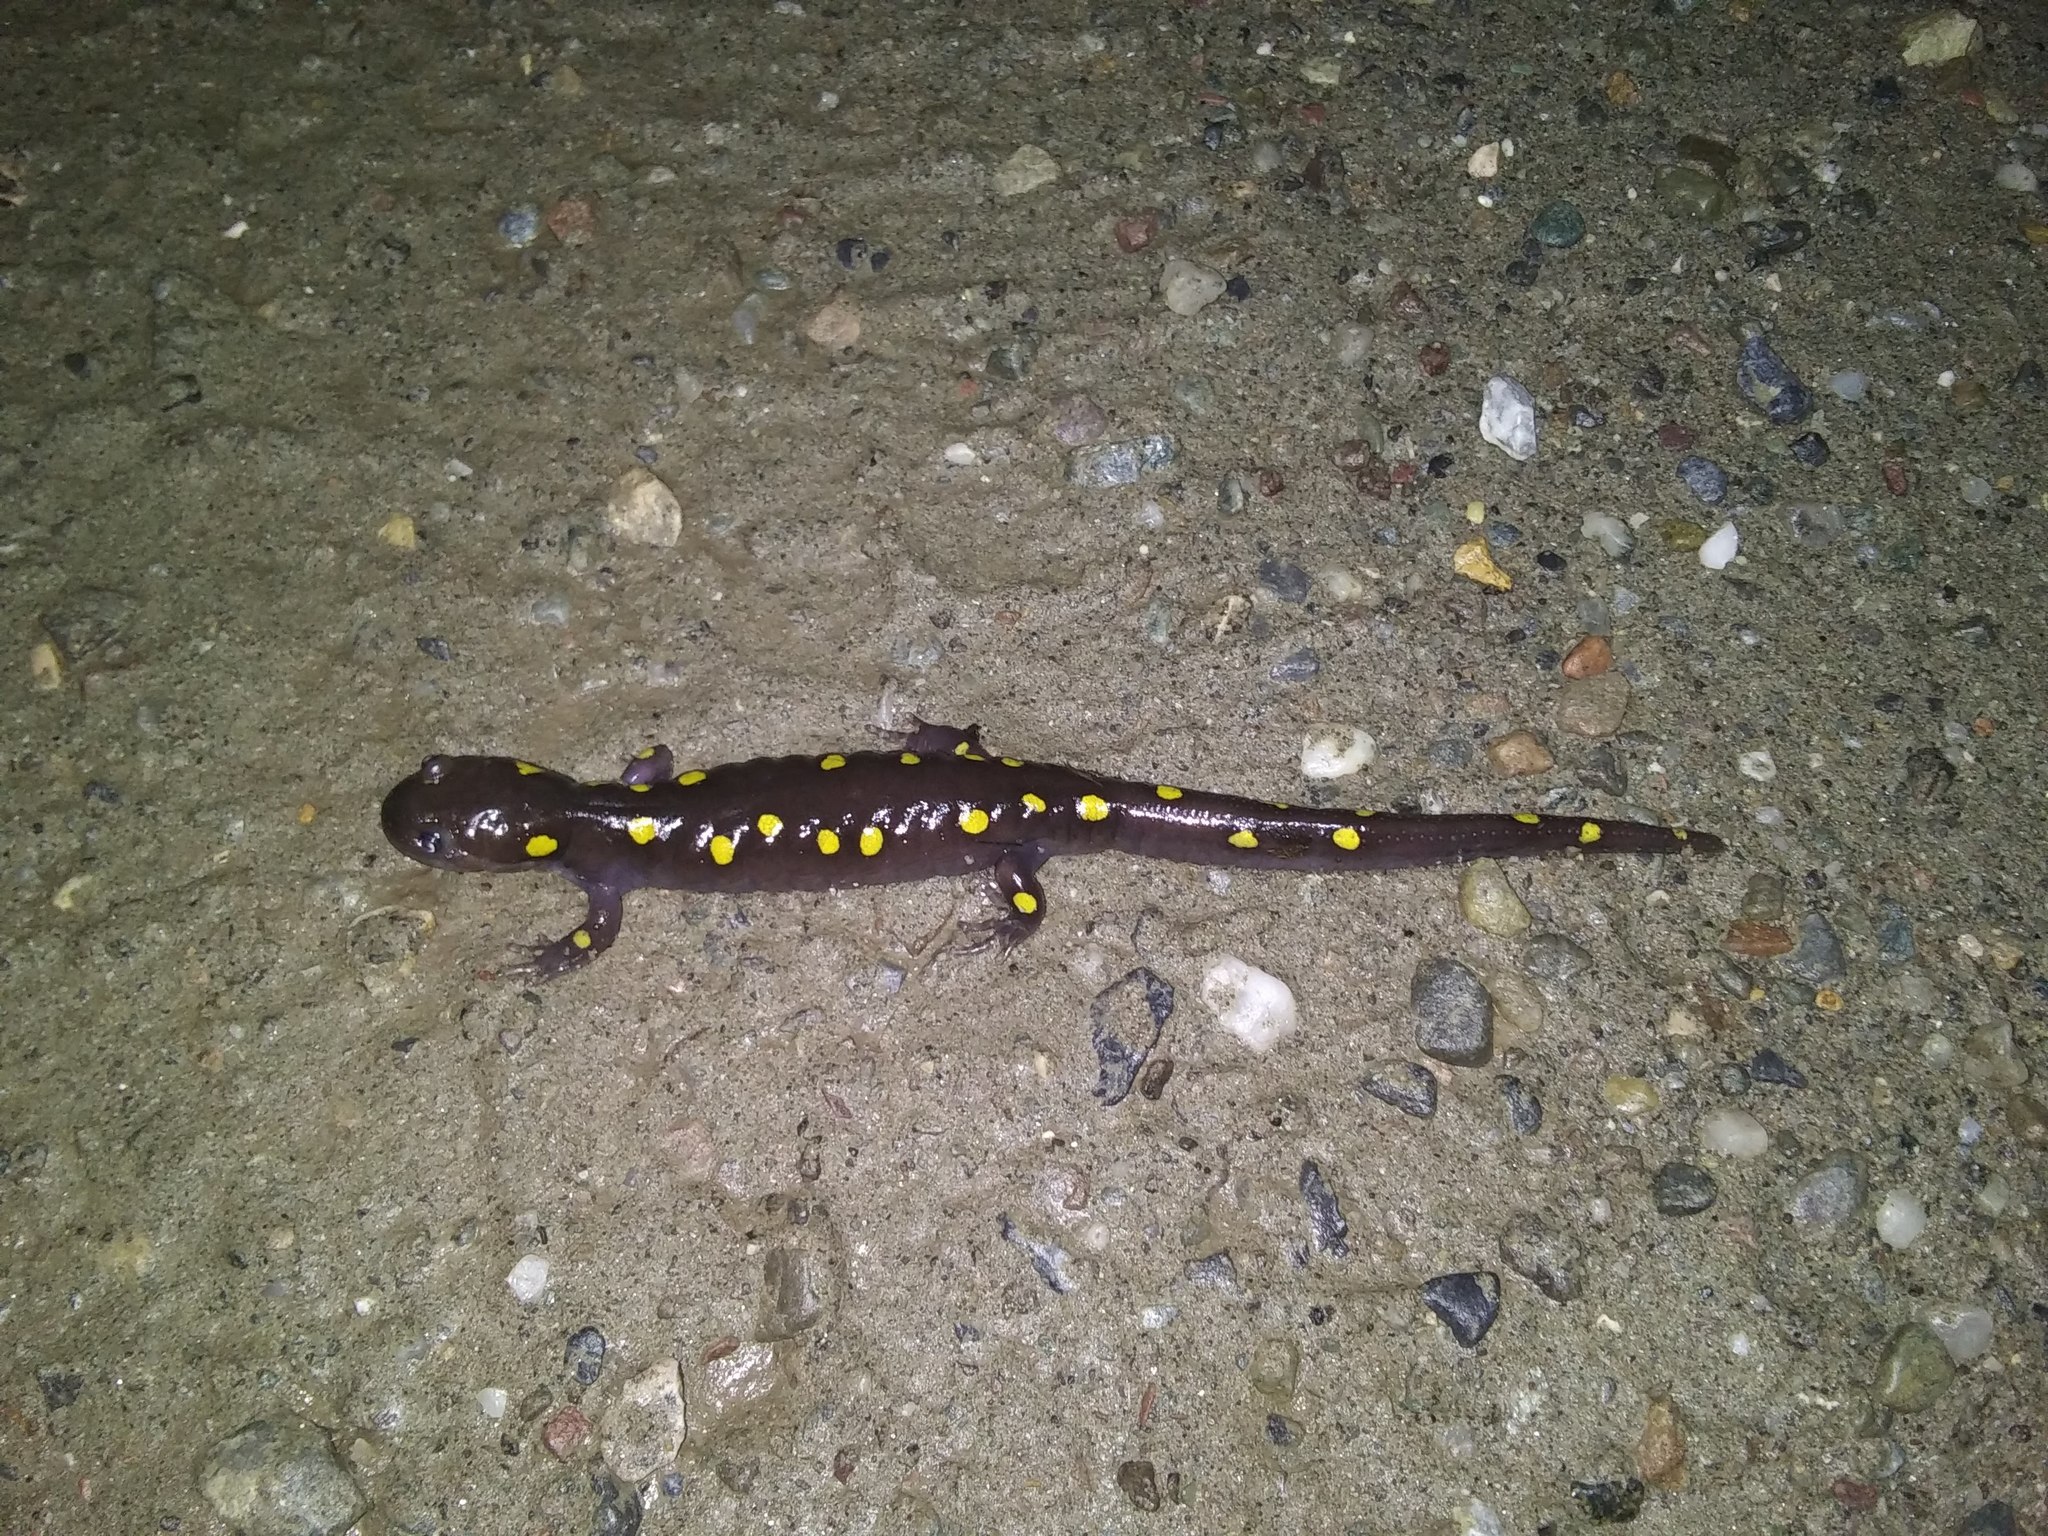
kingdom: Animalia
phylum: Chordata
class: Amphibia
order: Caudata
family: Ambystomatidae
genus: Ambystoma
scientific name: Ambystoma maculatum
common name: Spotted salamander
